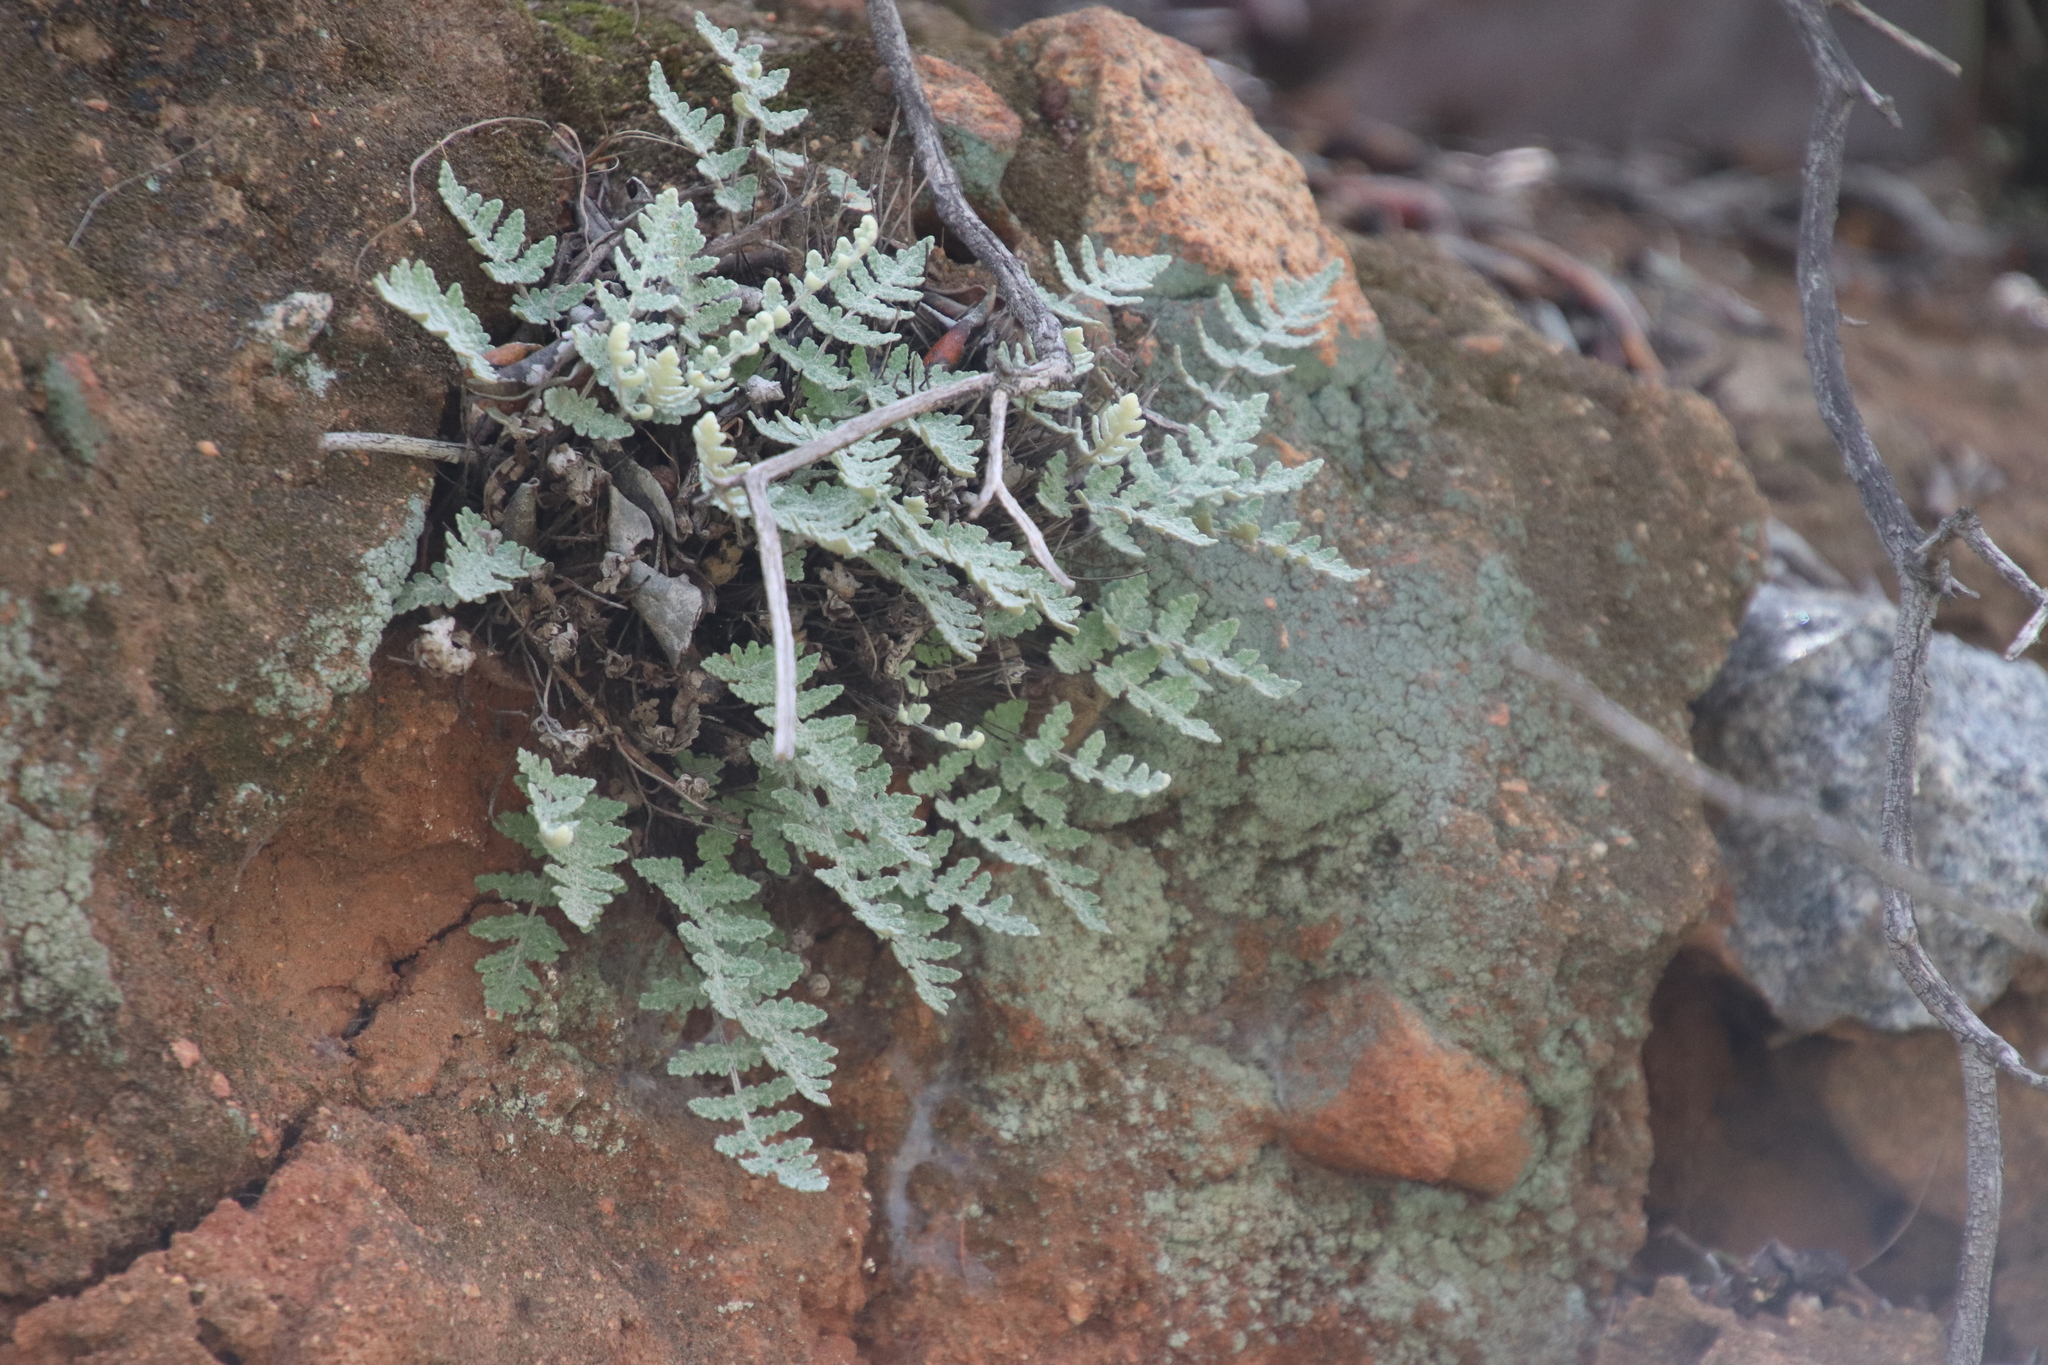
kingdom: Plantae
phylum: Tracheophyta
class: Polypodiopsida
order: Polypodiales
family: Pteridaceae
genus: Myriopteris
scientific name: Myriopteris newberryi
